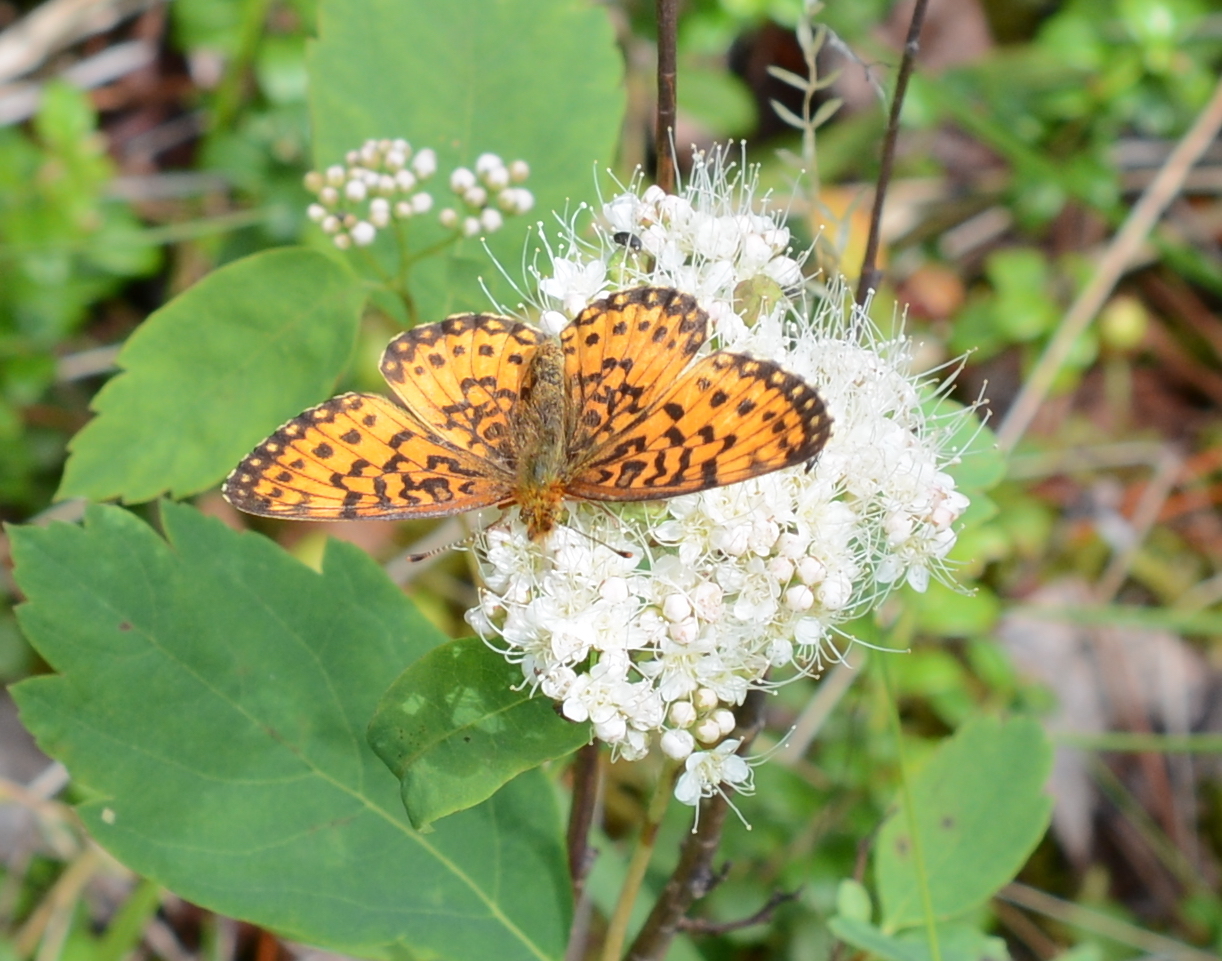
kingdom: Animalia
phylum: Arthropoda
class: Insecta
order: Lepidoptera
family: Nymphalidae
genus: Boloria
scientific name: Boloria
